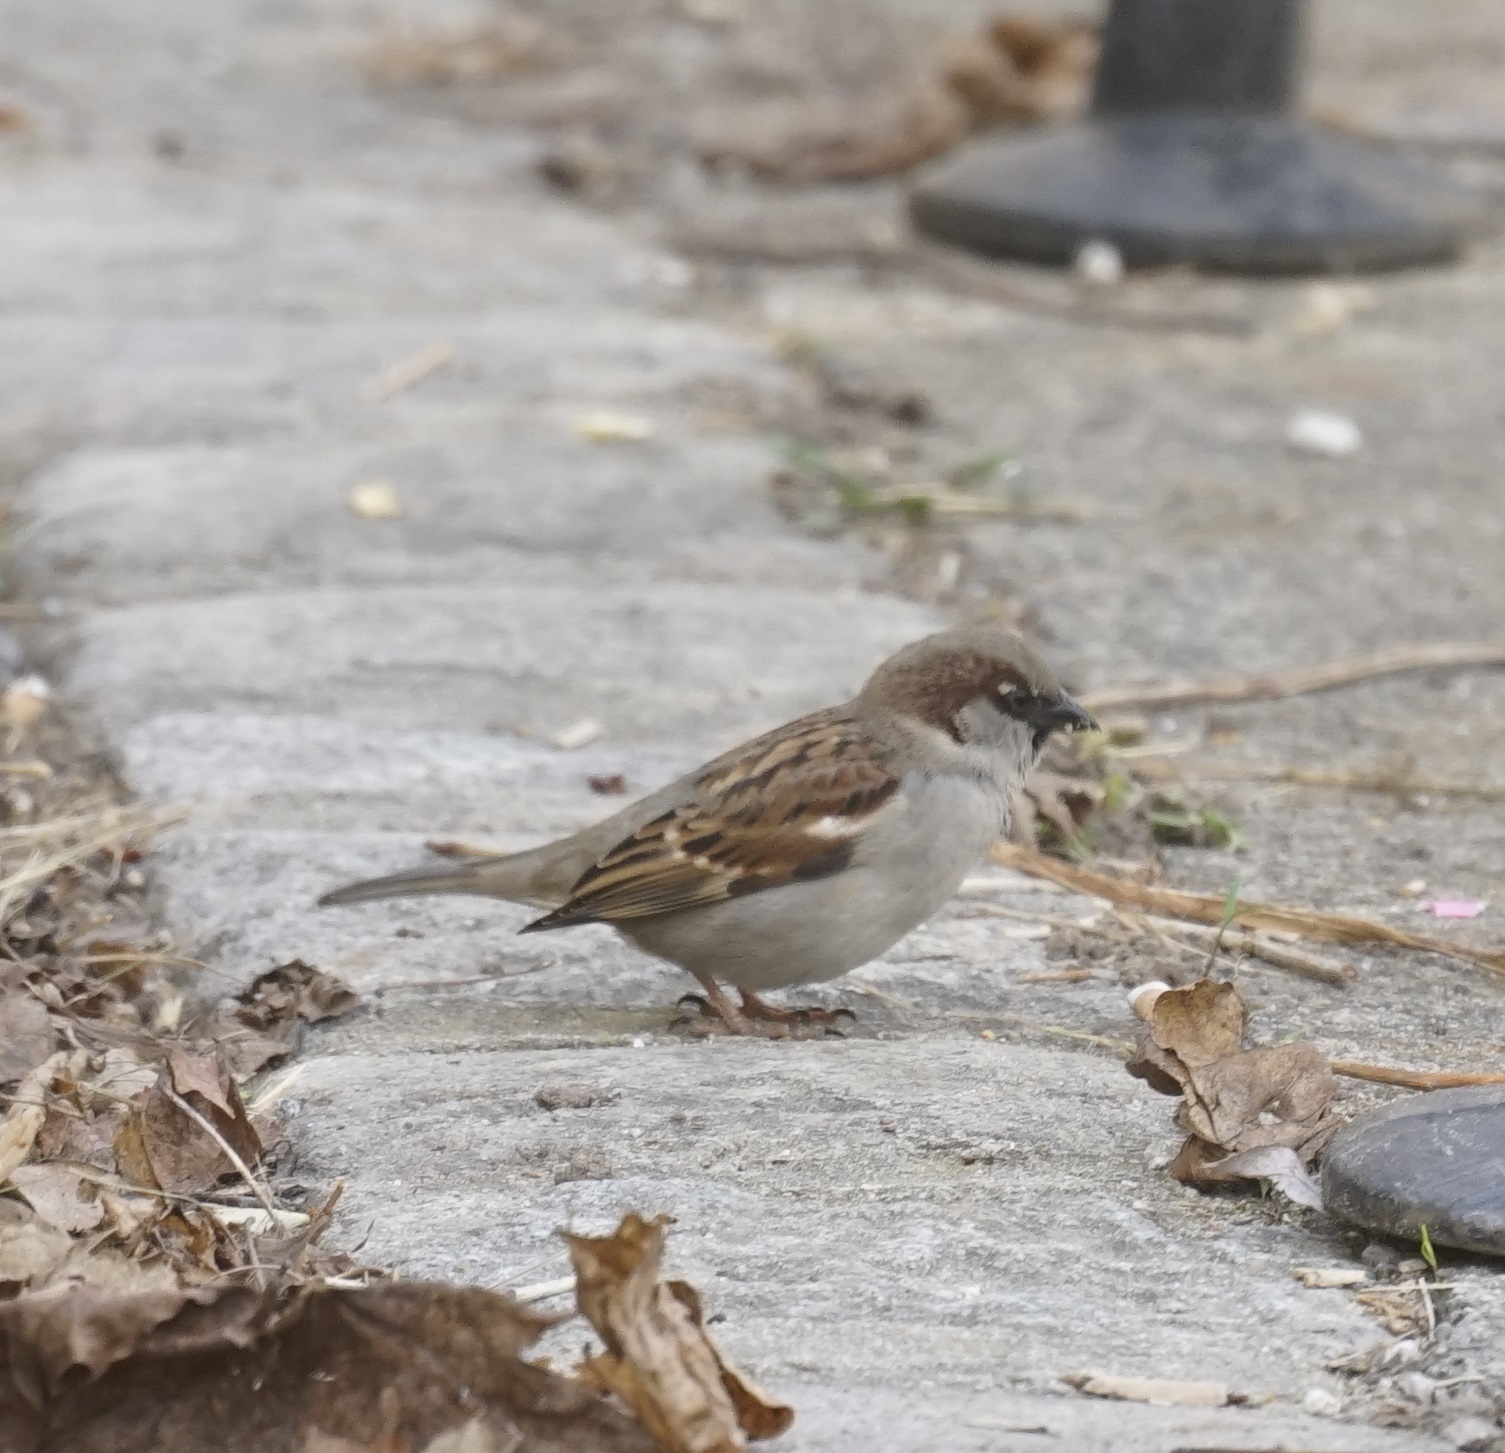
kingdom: Animalia
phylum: Chordata
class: Aves
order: Passeriformes
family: Passeridae
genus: Passer
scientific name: Passer domesticus
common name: House sparrow
